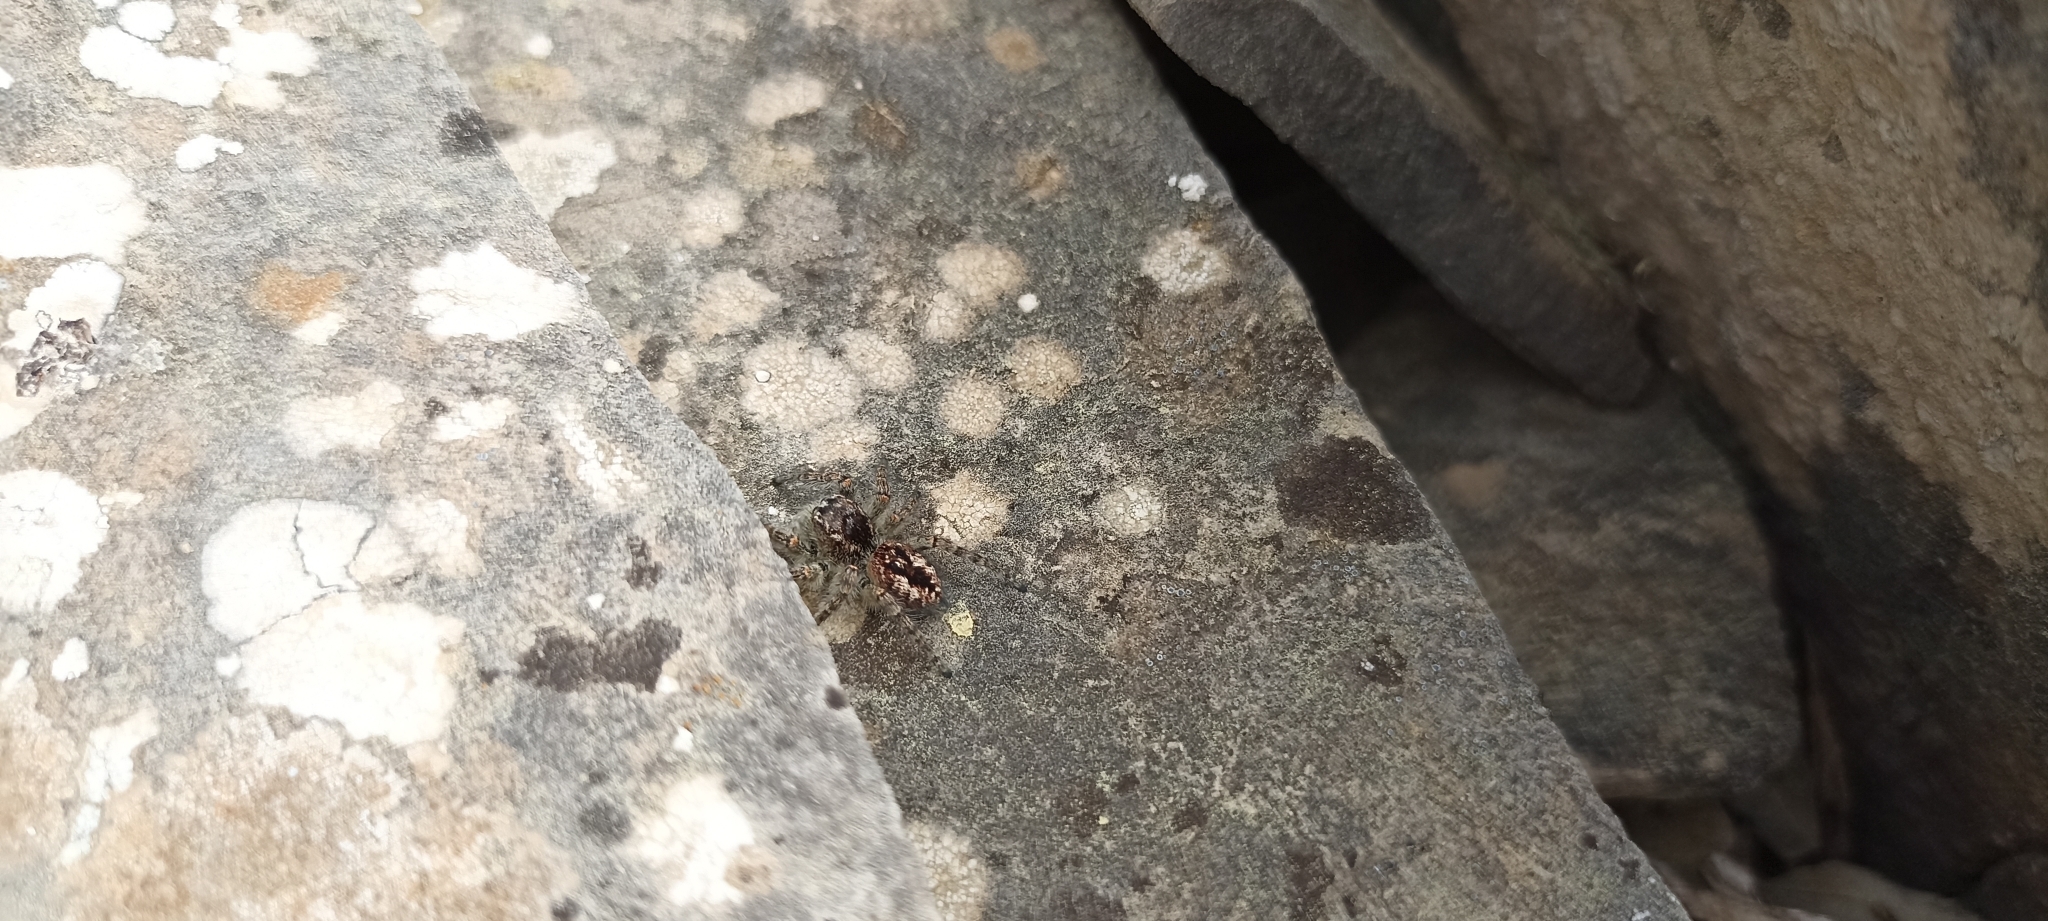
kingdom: Animalia
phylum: Arthropoda
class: Arachnida
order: Araneae
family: Salticidae
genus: Philaeus
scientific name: Philaeus chrysops
